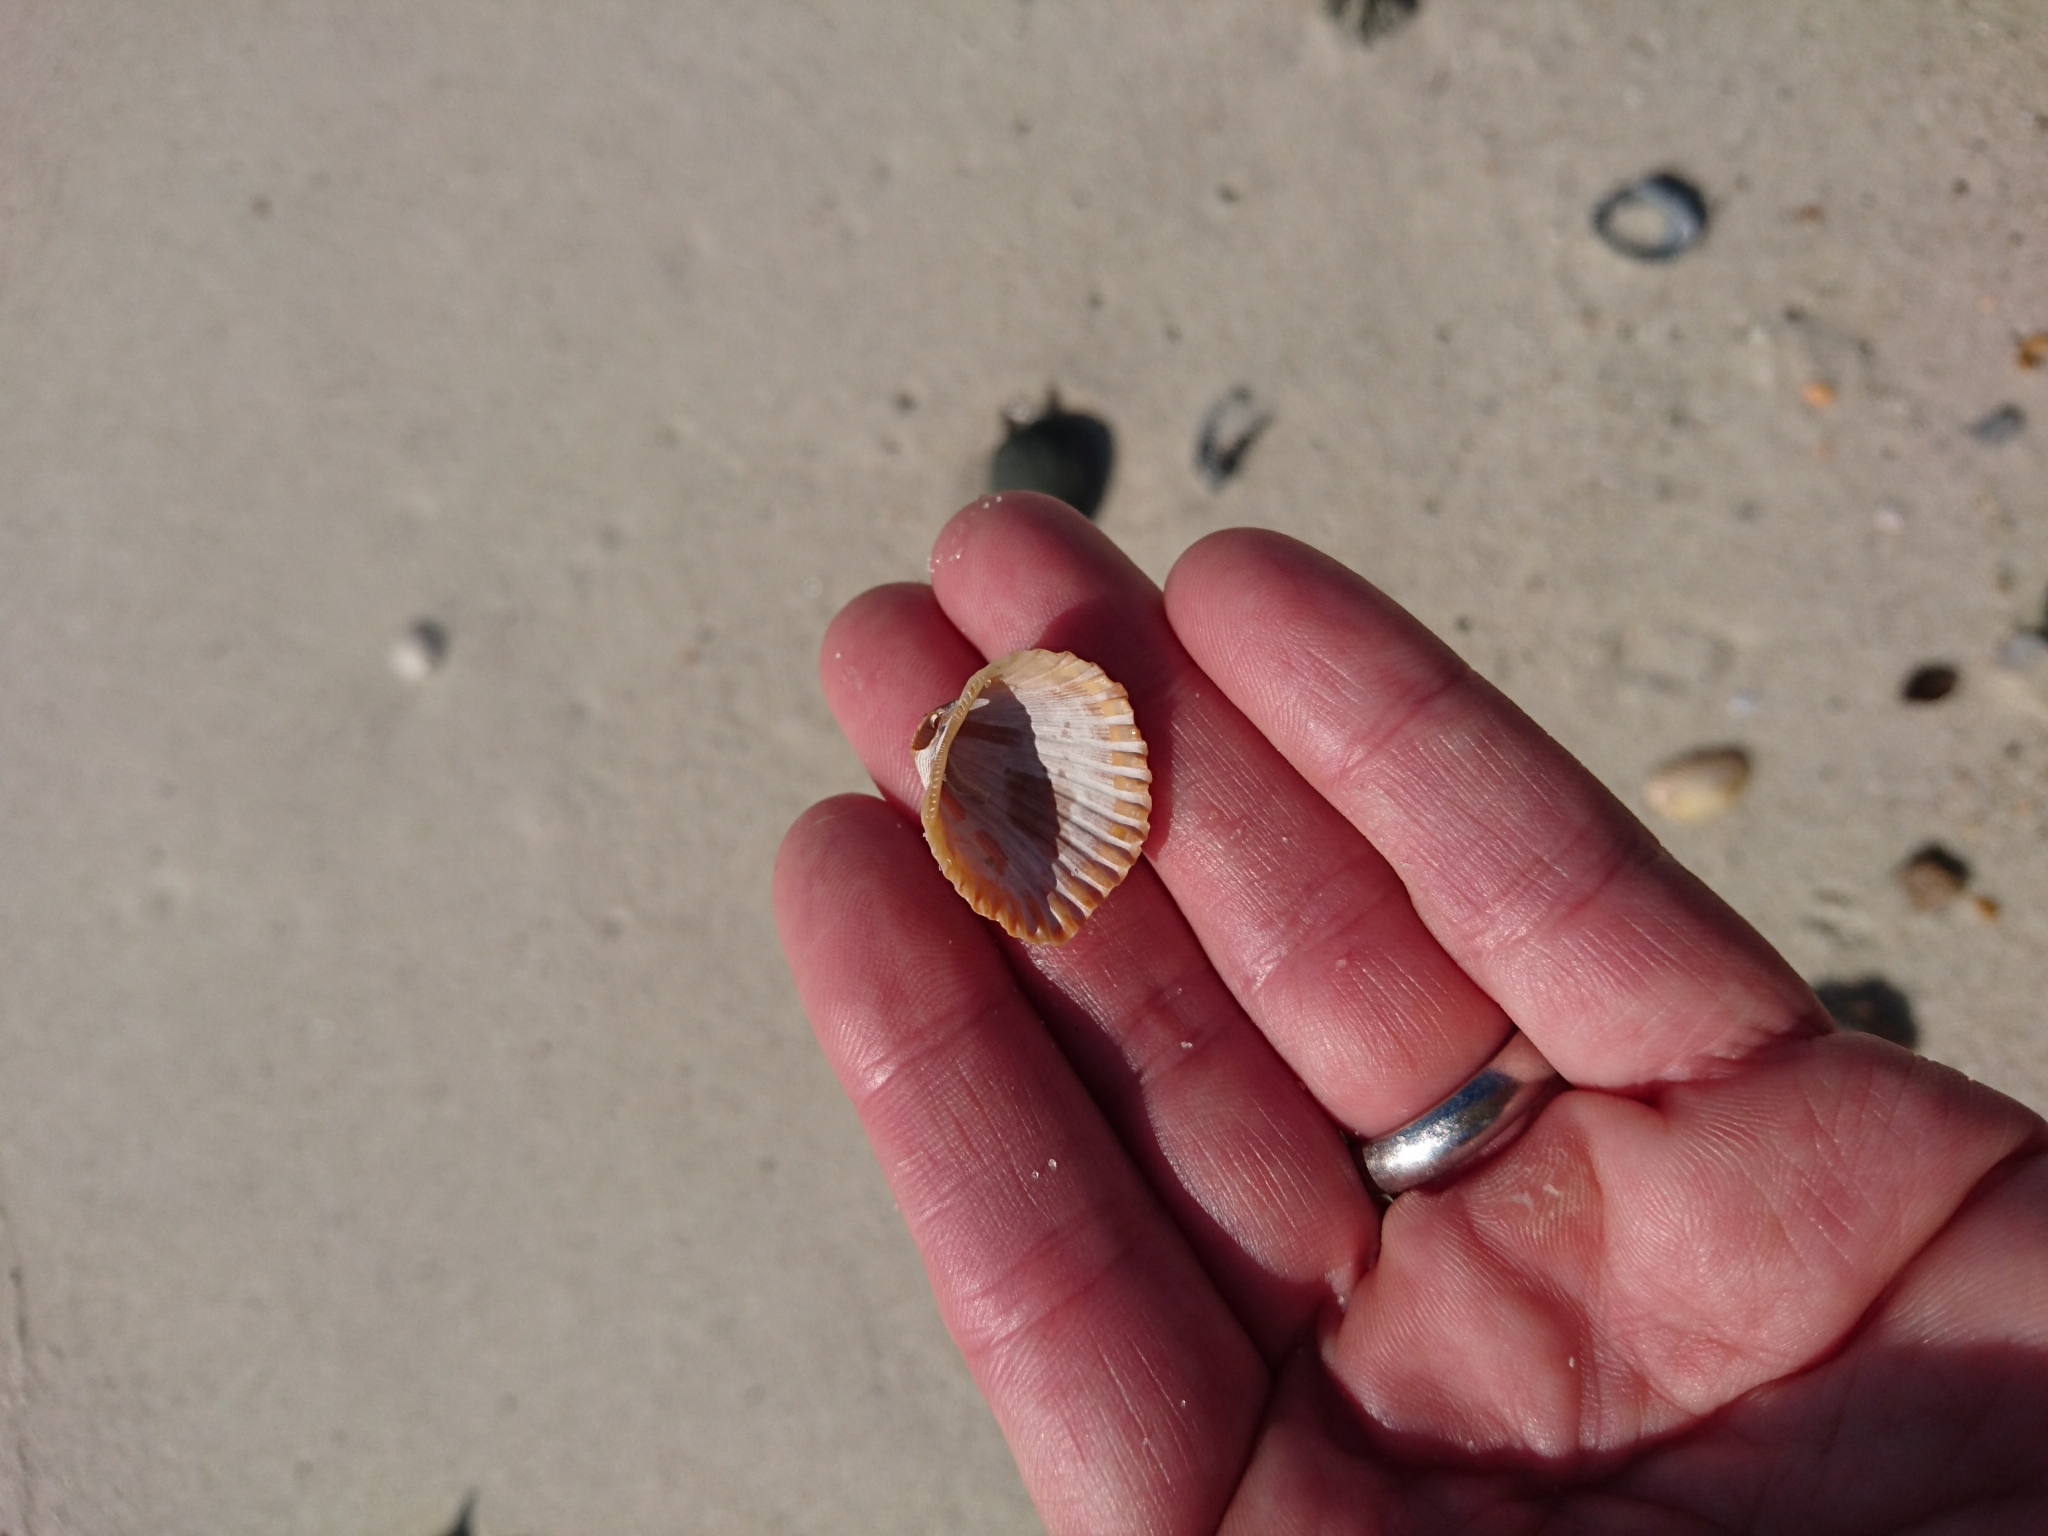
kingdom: Animalia
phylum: Mollusca
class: Bivalvia
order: Arcida
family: Arcidae
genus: Anadara
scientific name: Anadara brasiliana
